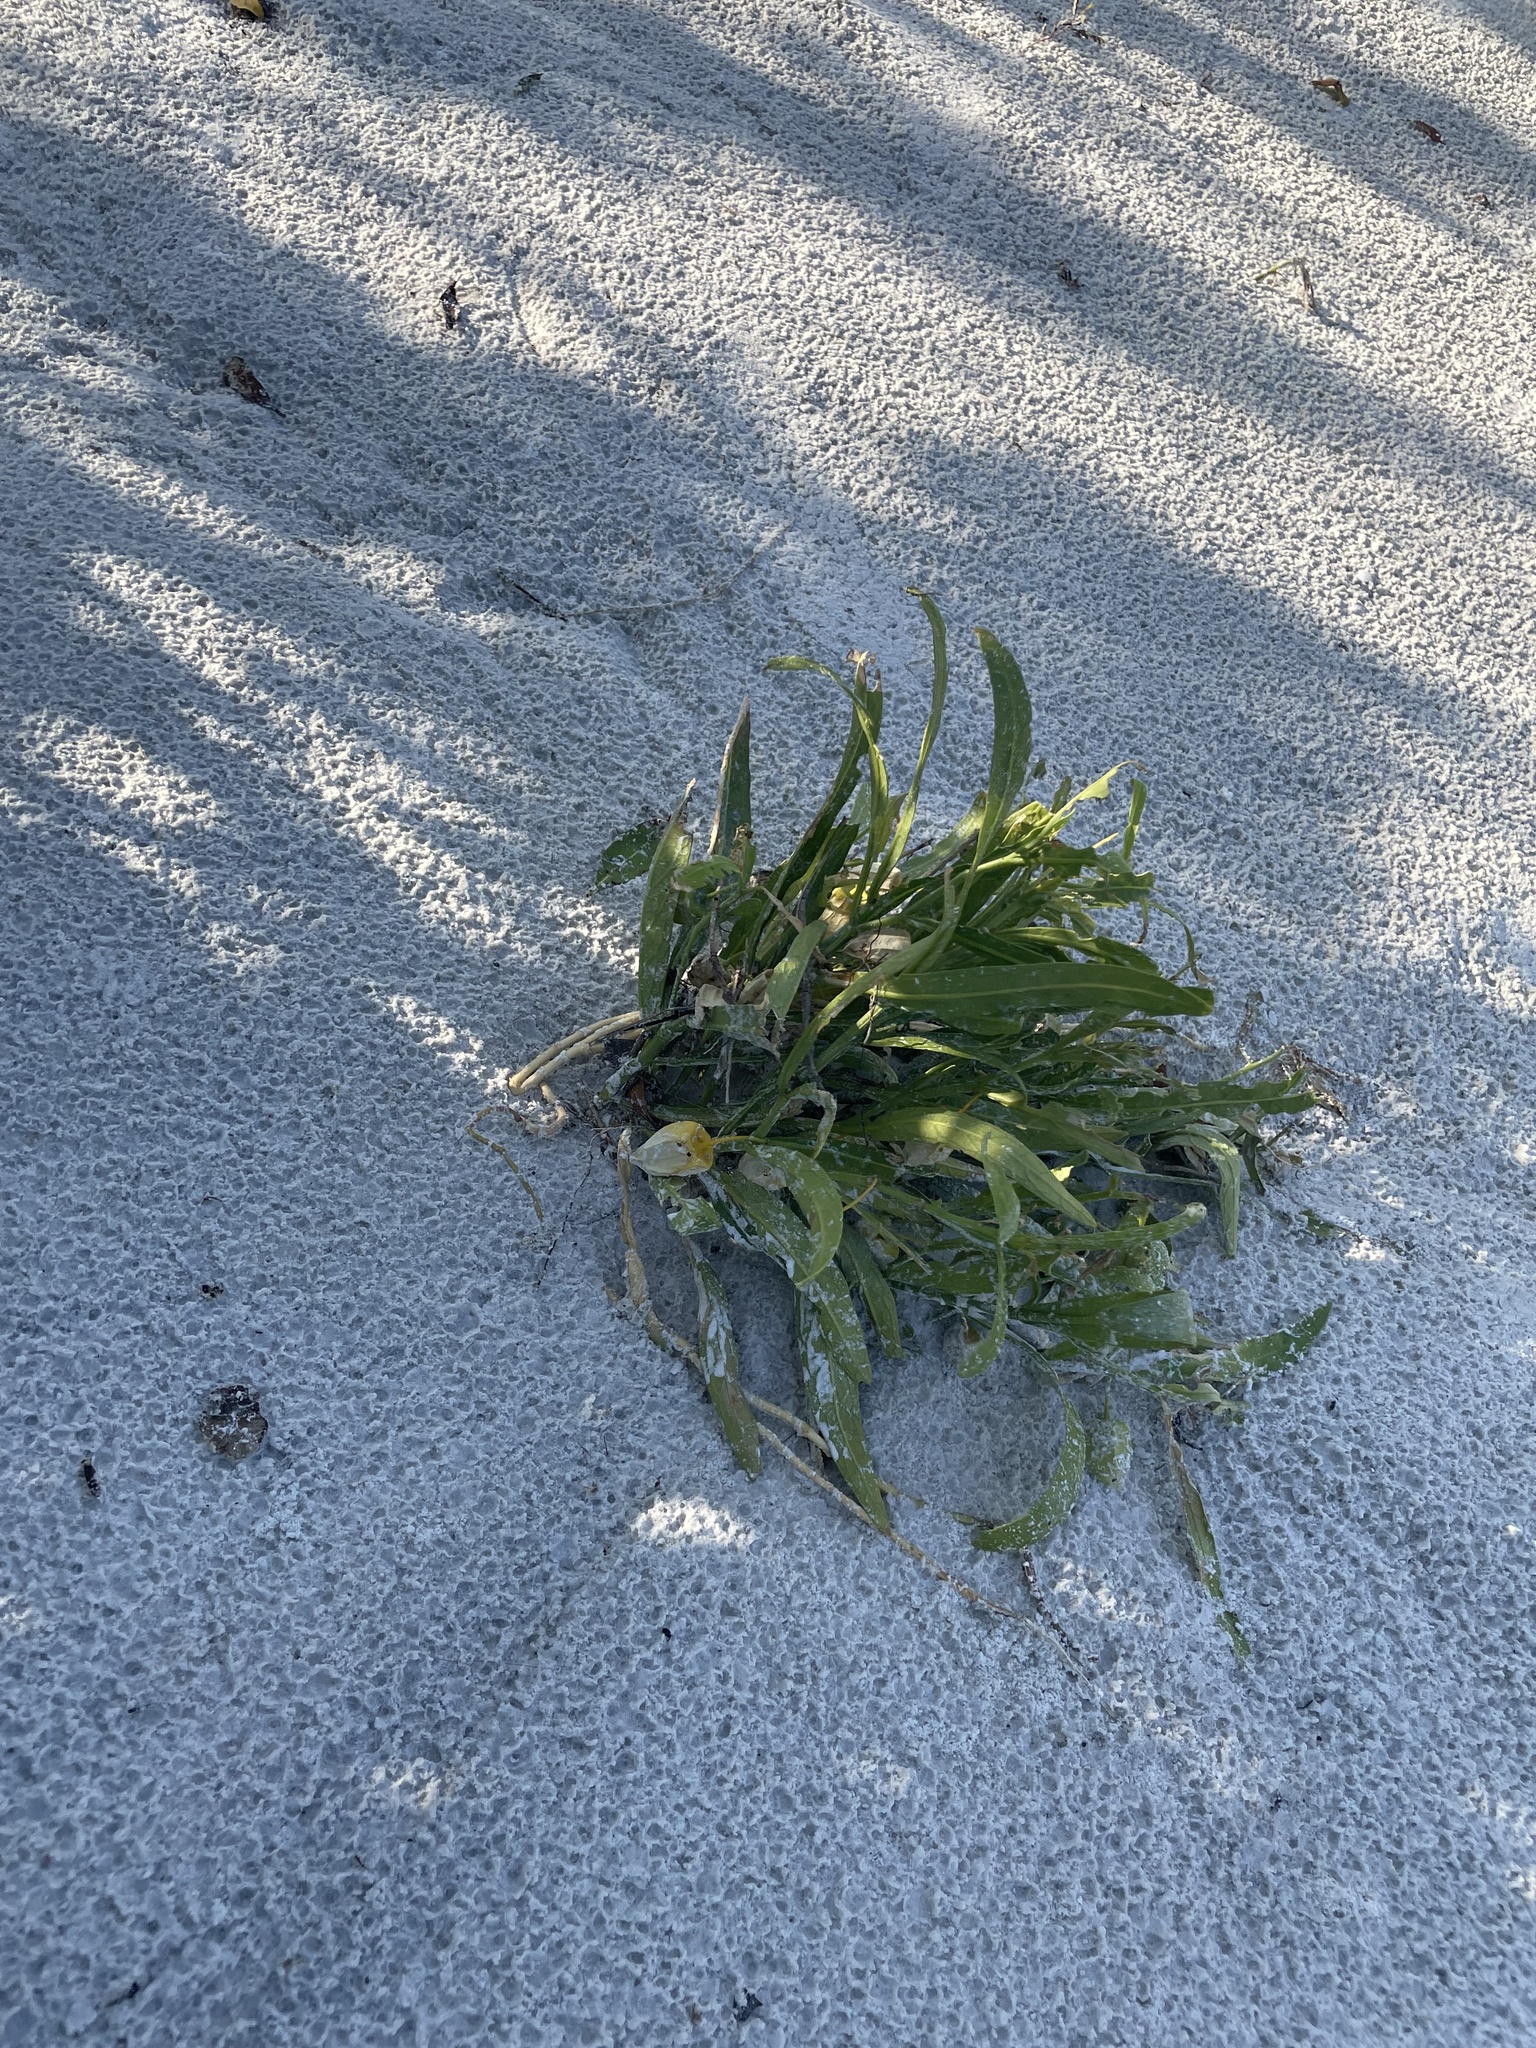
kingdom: Plantae
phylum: Tracheophyta
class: Magnoliopsida
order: Solanales
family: Solanaceae
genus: Physalis
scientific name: Physalis elliottii
